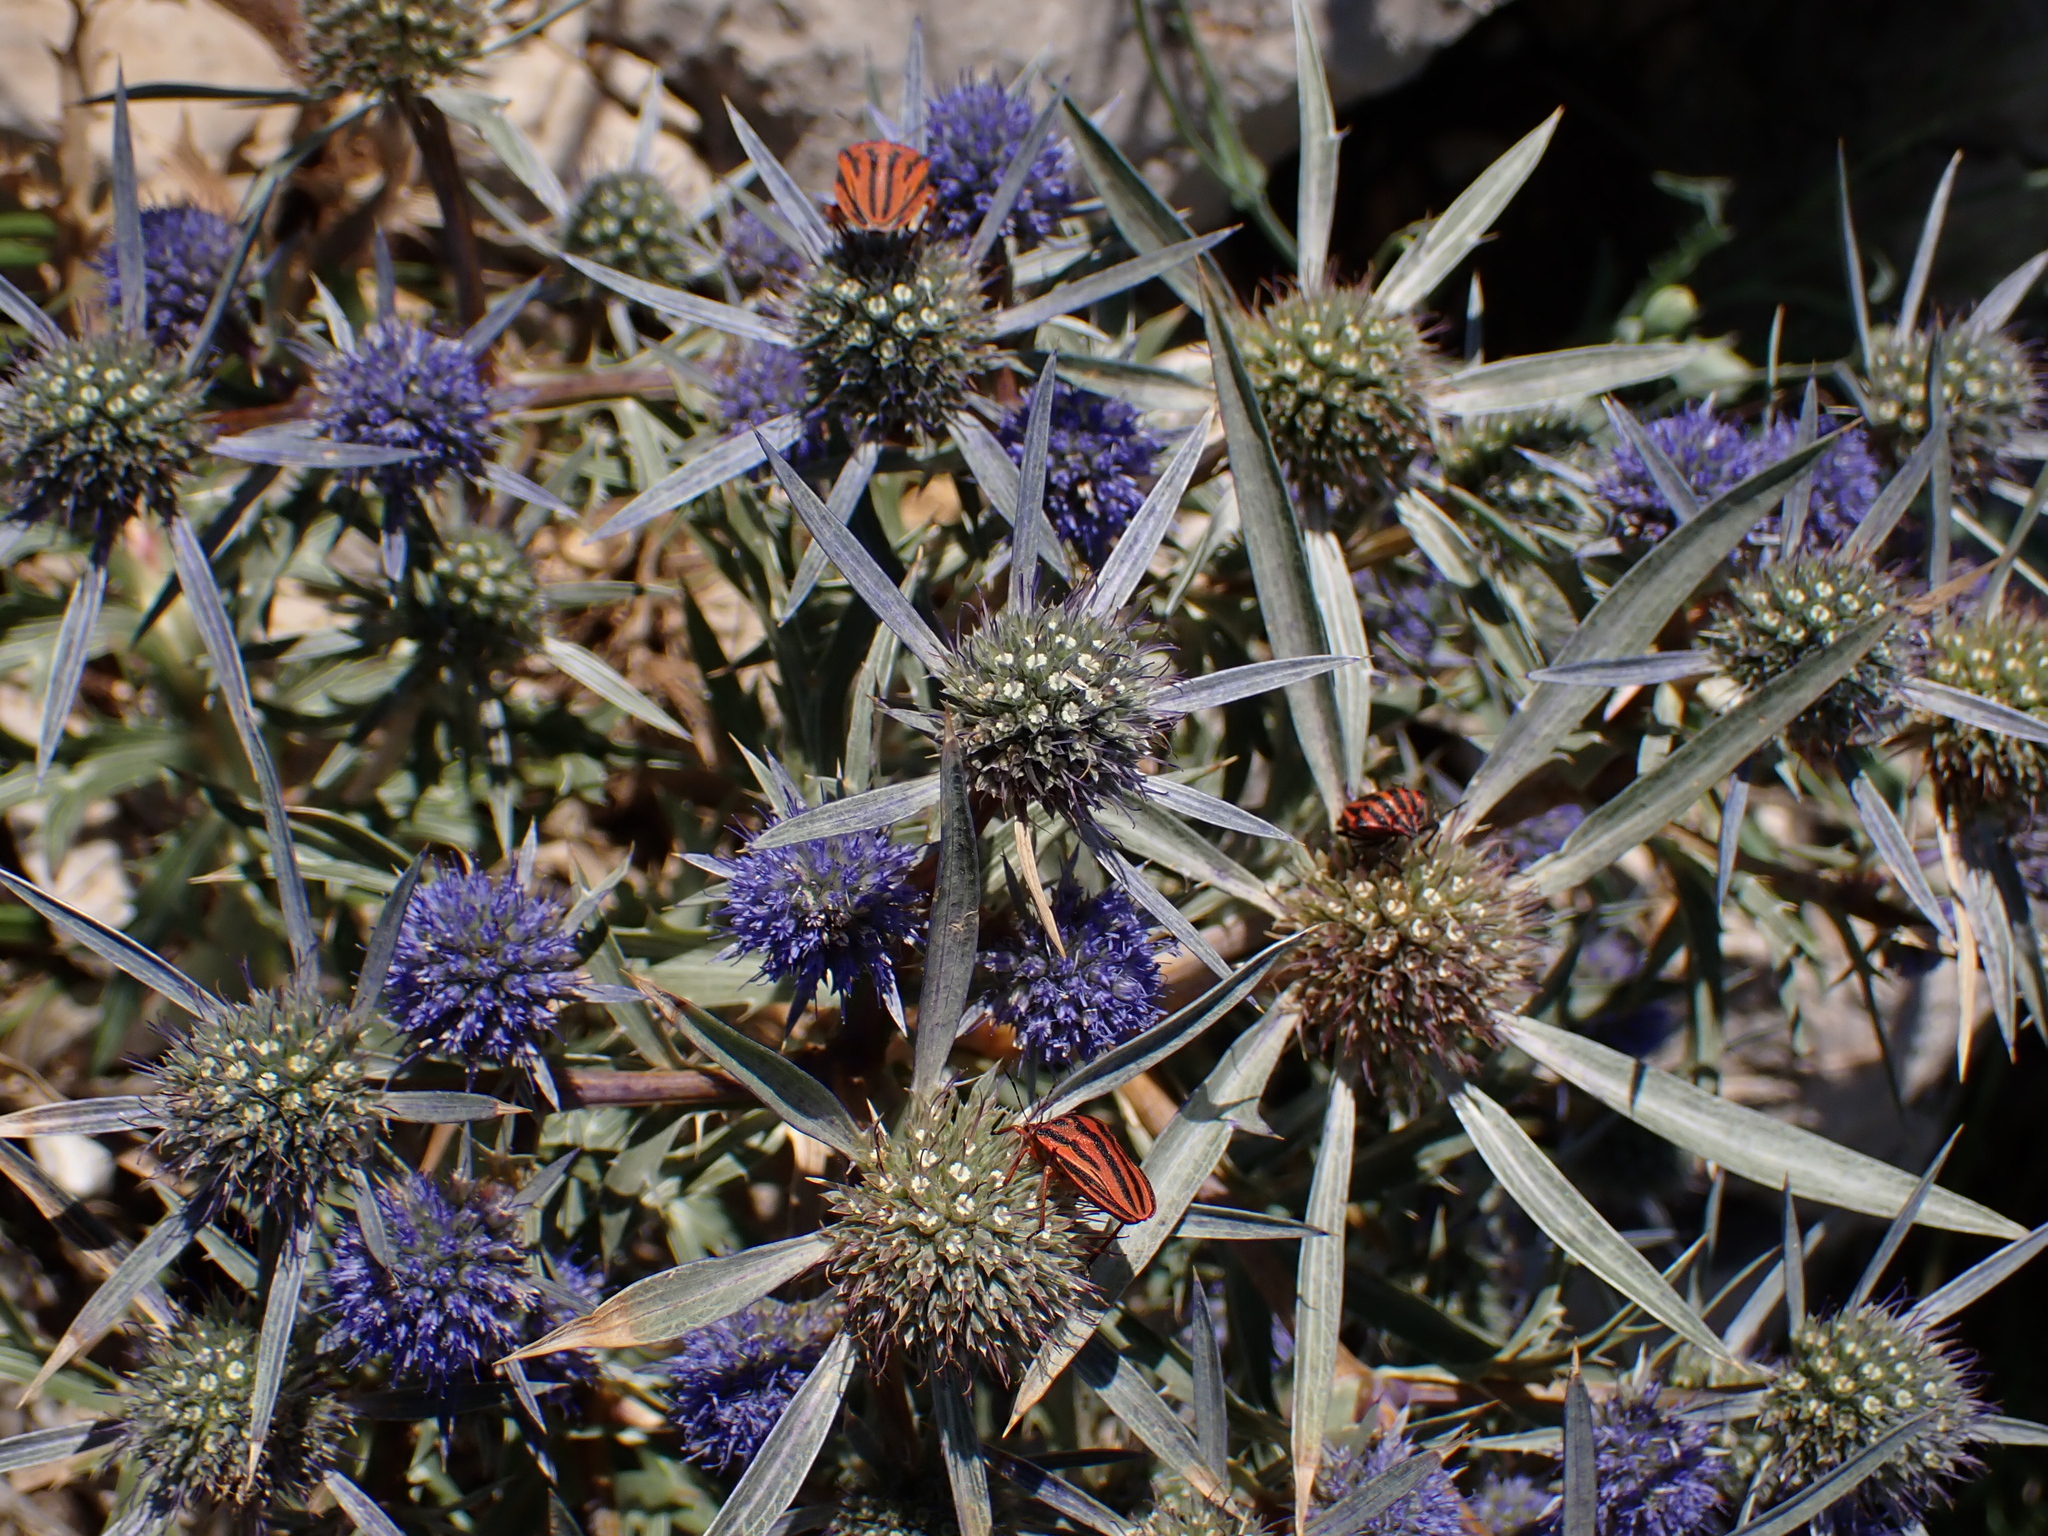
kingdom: Plantae
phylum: Tracheophyta
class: Magnoliopsida
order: Apiales
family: Apiaceae
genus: Eryngium
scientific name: Eryngium amethystinum
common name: Amethyst eryngo
